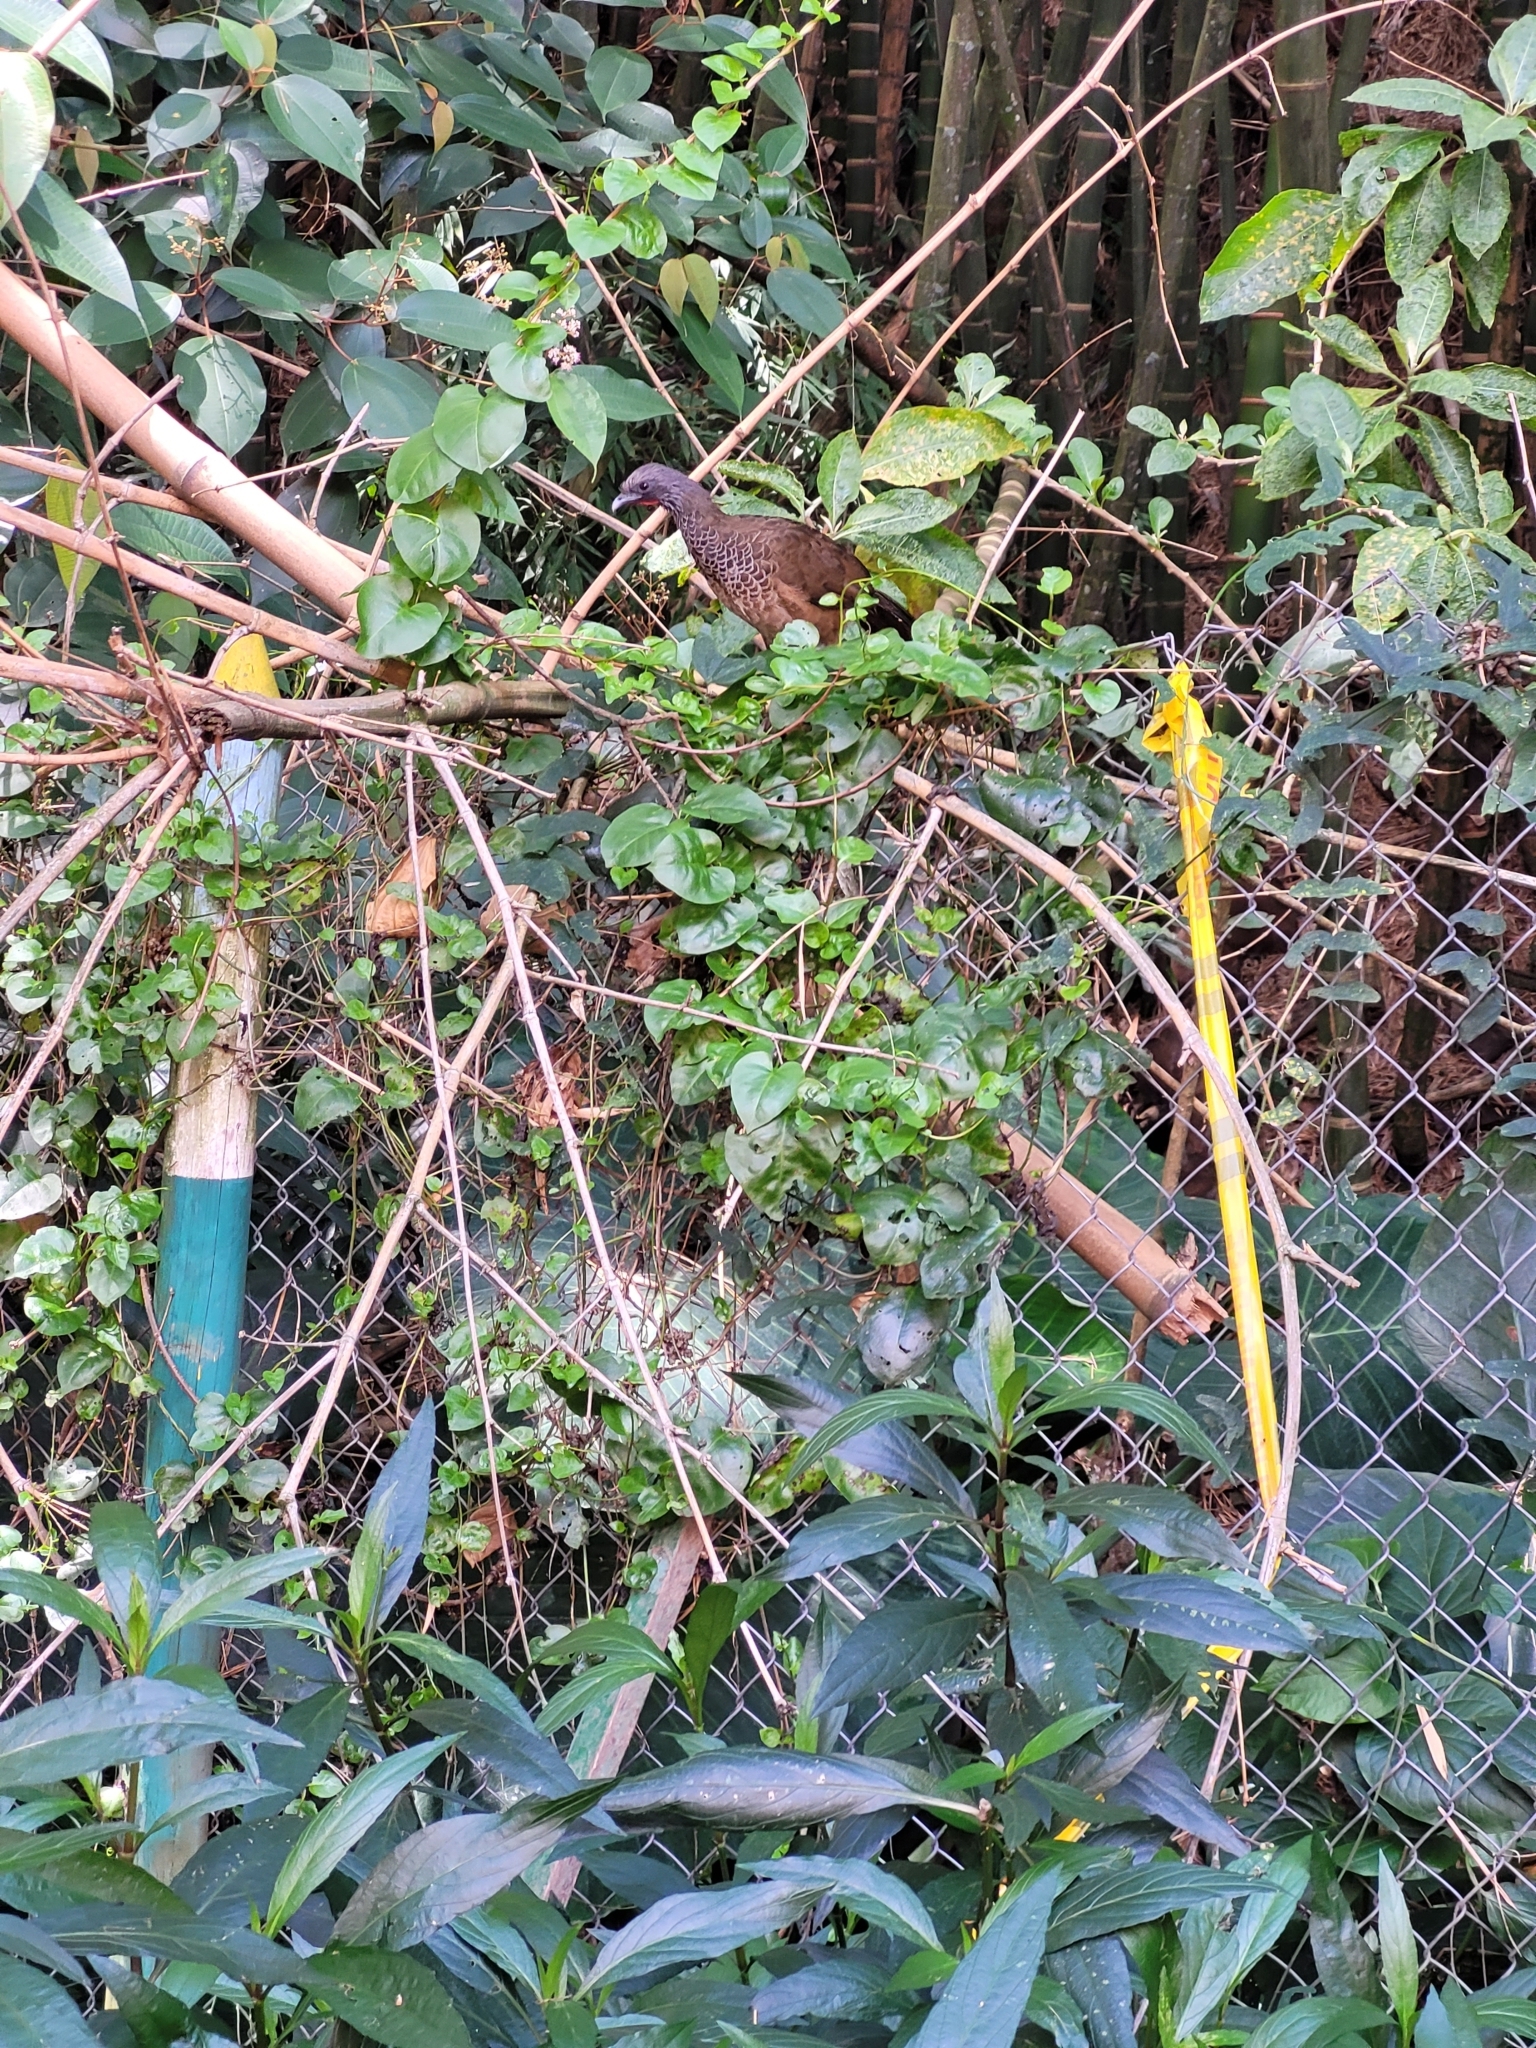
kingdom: Animalia
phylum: Chordata
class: Aves
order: Galliformes
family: Cracidae
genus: Ortalis
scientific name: Ortalis columbiana
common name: Colombian chachalaca
